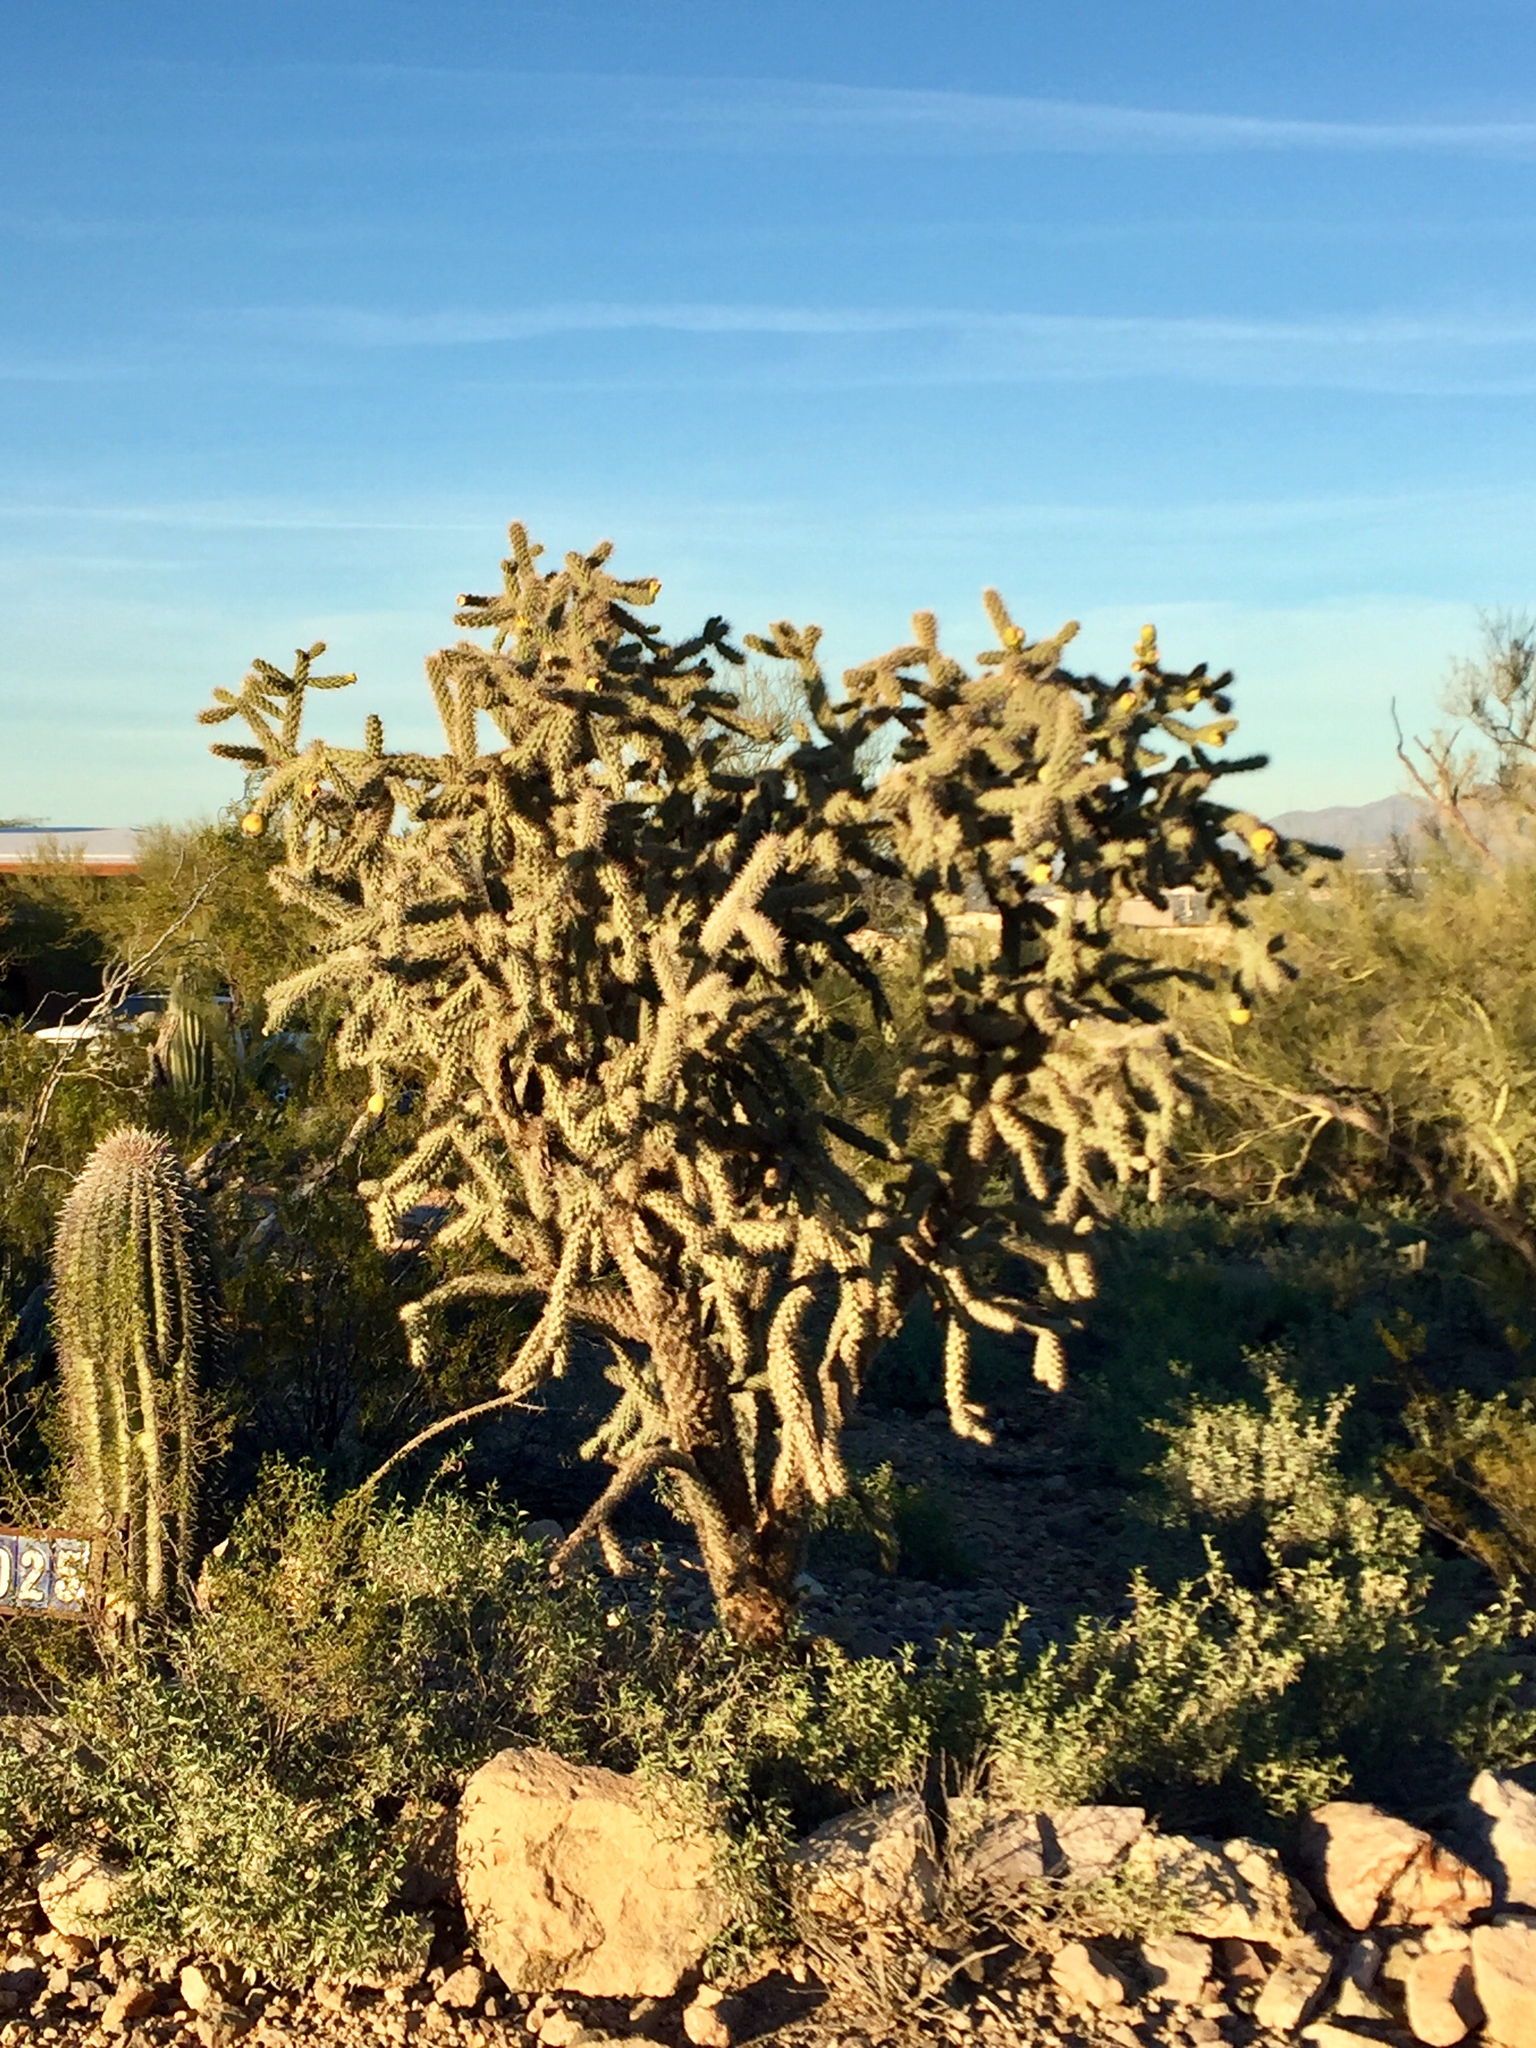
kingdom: Plantae
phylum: Tracheophyta
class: Magnoliopsida
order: Caryophyllales
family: Cactaceae
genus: Cylindropuntia
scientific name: Cylindropuntia imbricata
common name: Candelabrum cactus
